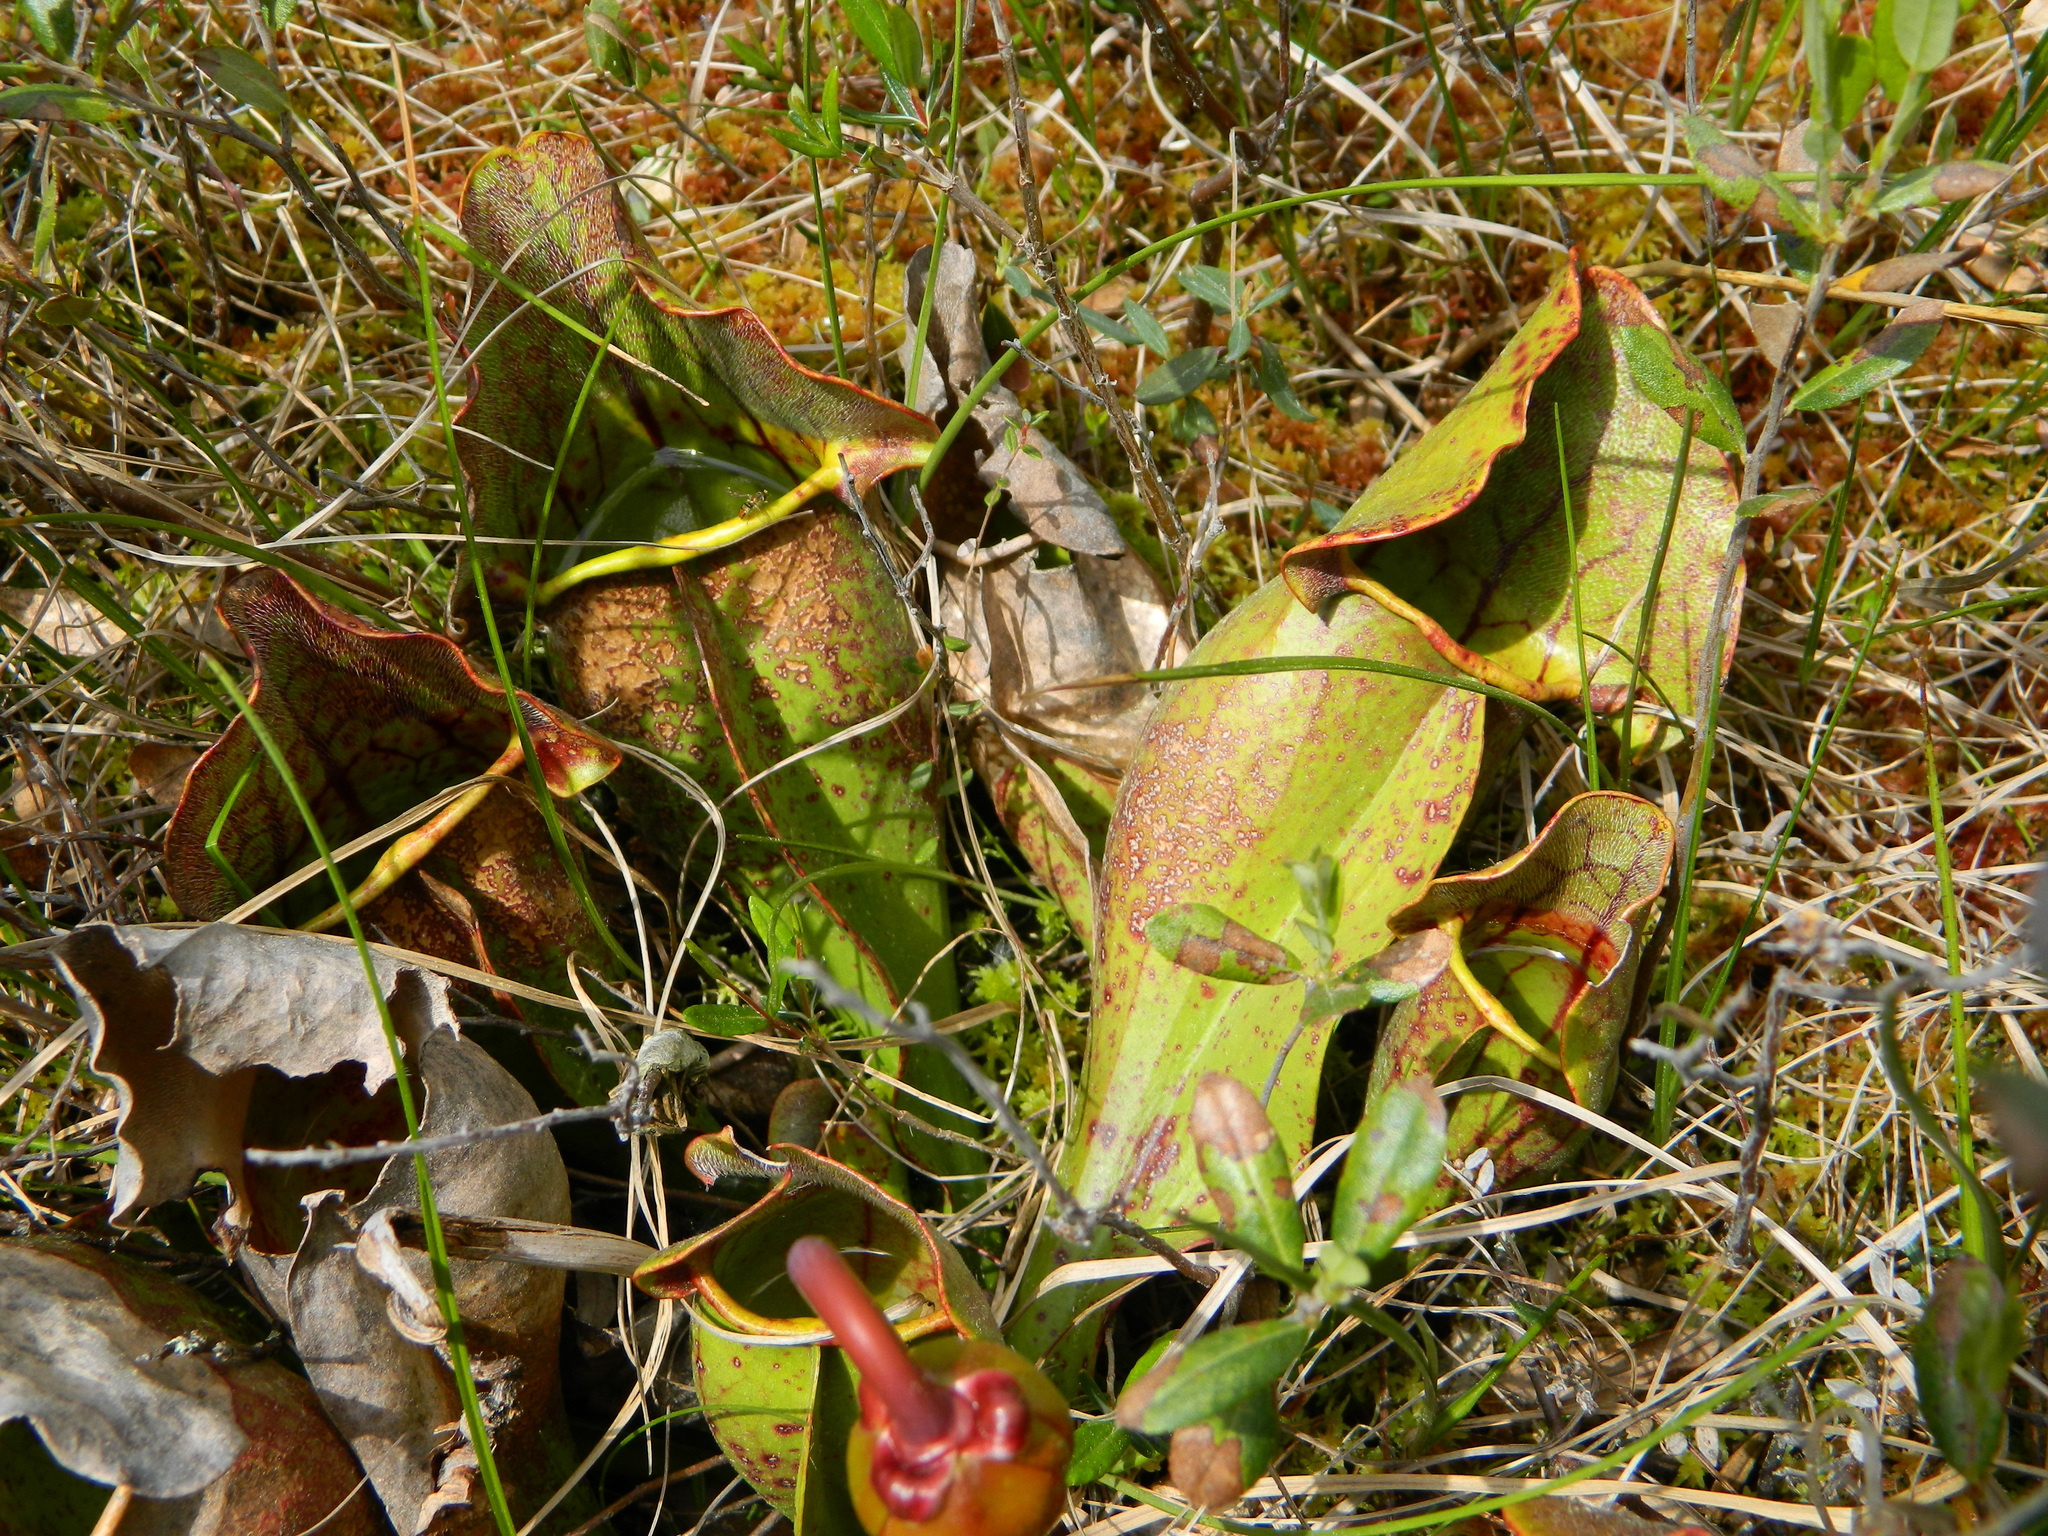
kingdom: Plantae
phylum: Tracheophyta
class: Magnoliopsida
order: Ericales
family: Sarraceniaceae
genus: Sarracenia
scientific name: Sarracenia purpurea
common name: Pitcherplant
